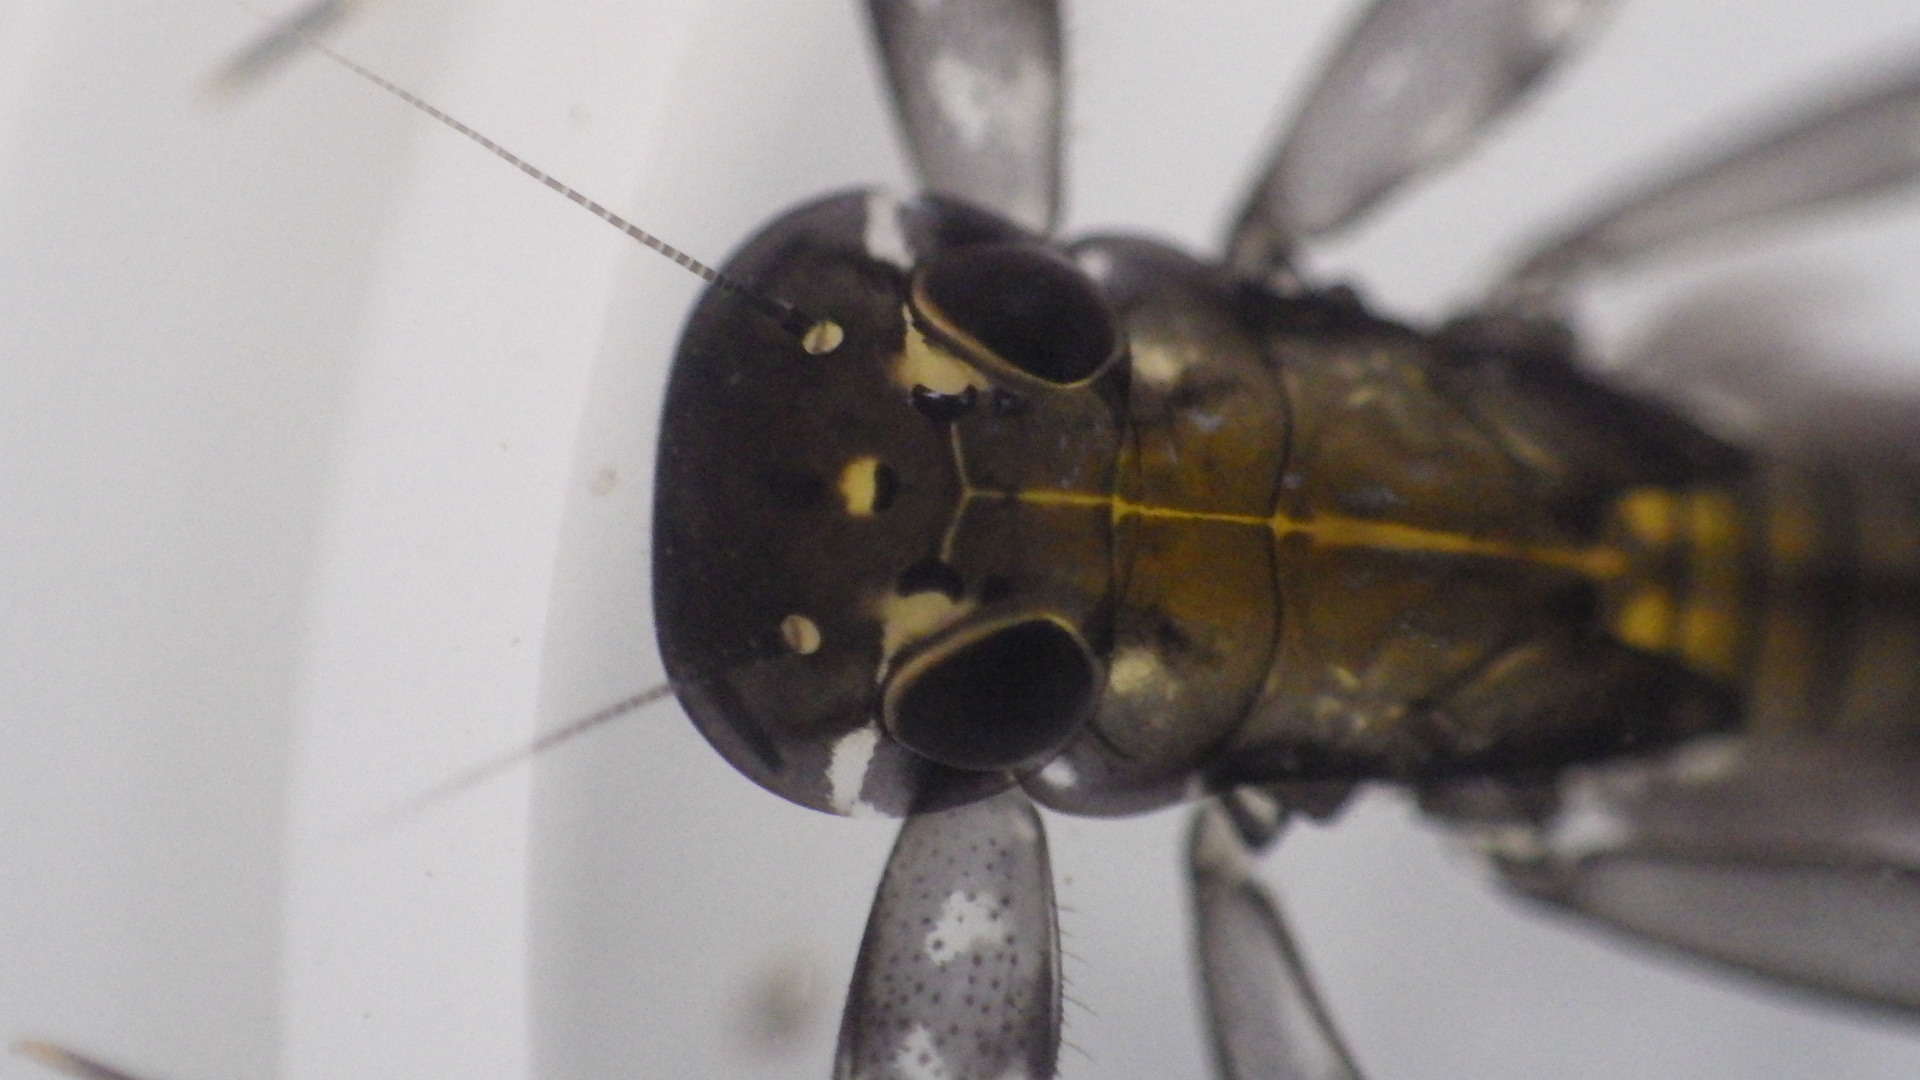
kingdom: Animalia
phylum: Arthropoda
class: Insecta
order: Ephemeroptera
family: Heptageniidae
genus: Stenacron
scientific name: Stenacron carolina
